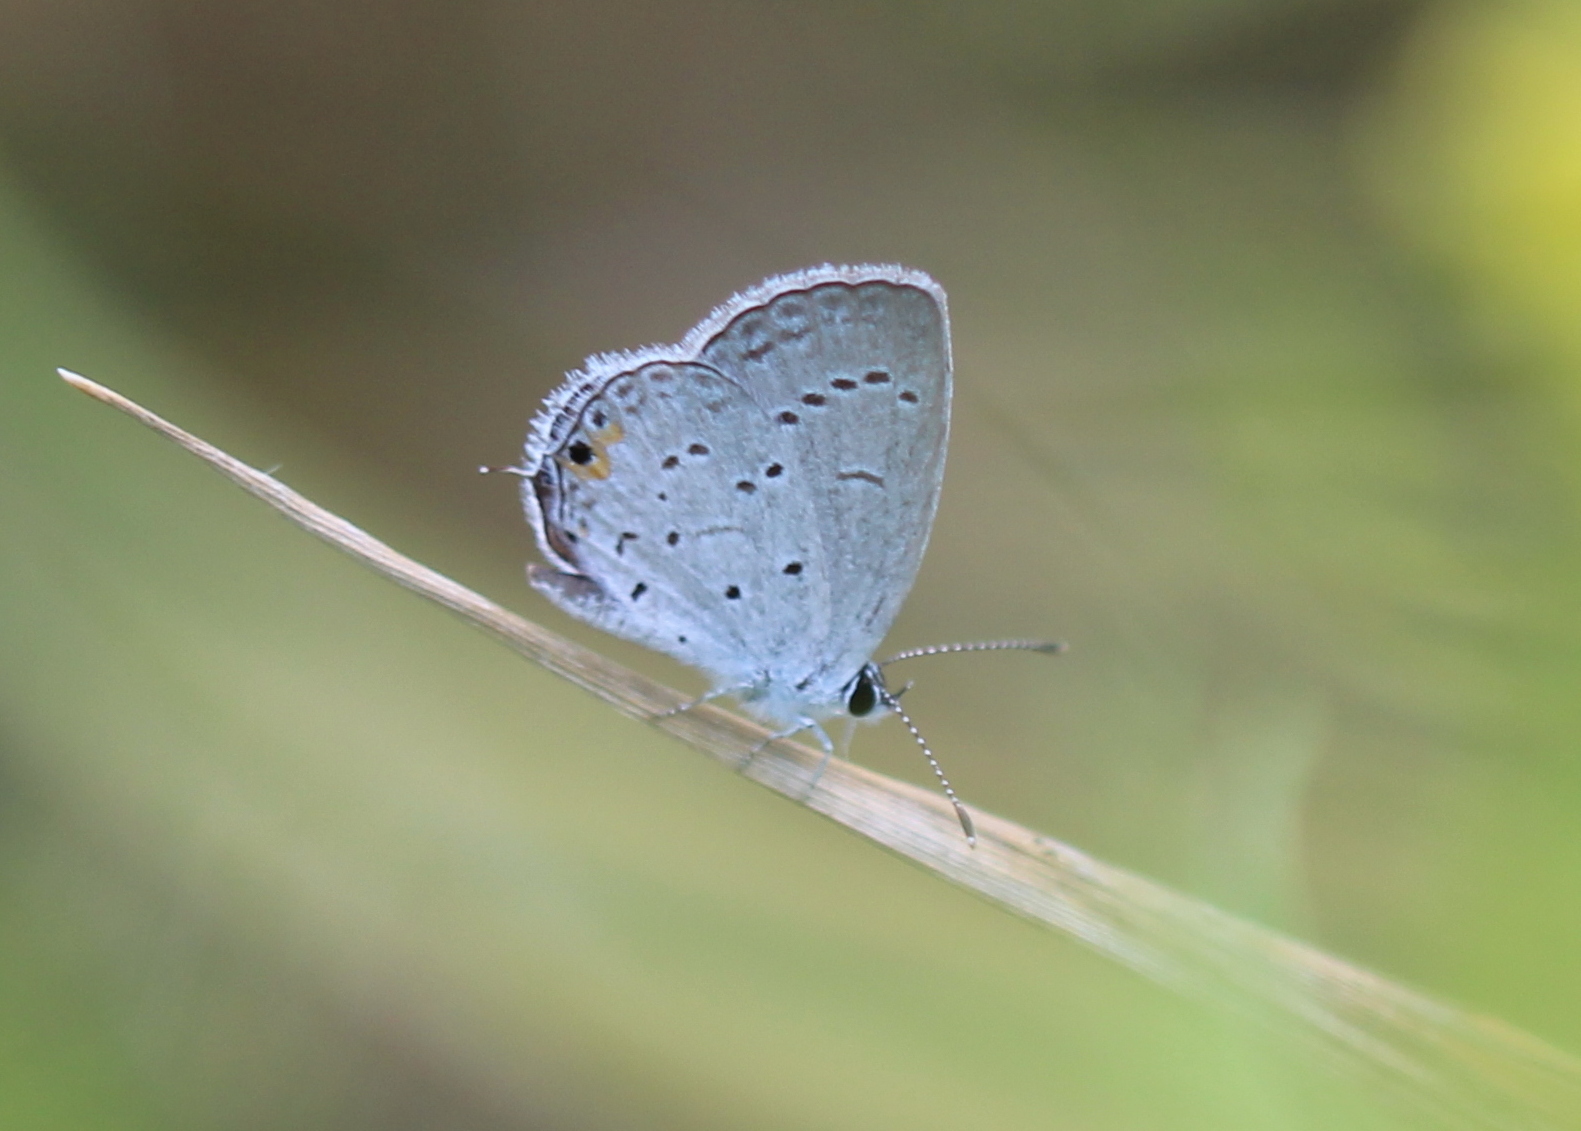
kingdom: Animalia
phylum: Arthropoda
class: Insecta
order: Lepidoptera
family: Lycaenidae
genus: Elkalyce
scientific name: Elkalyce comyntas
